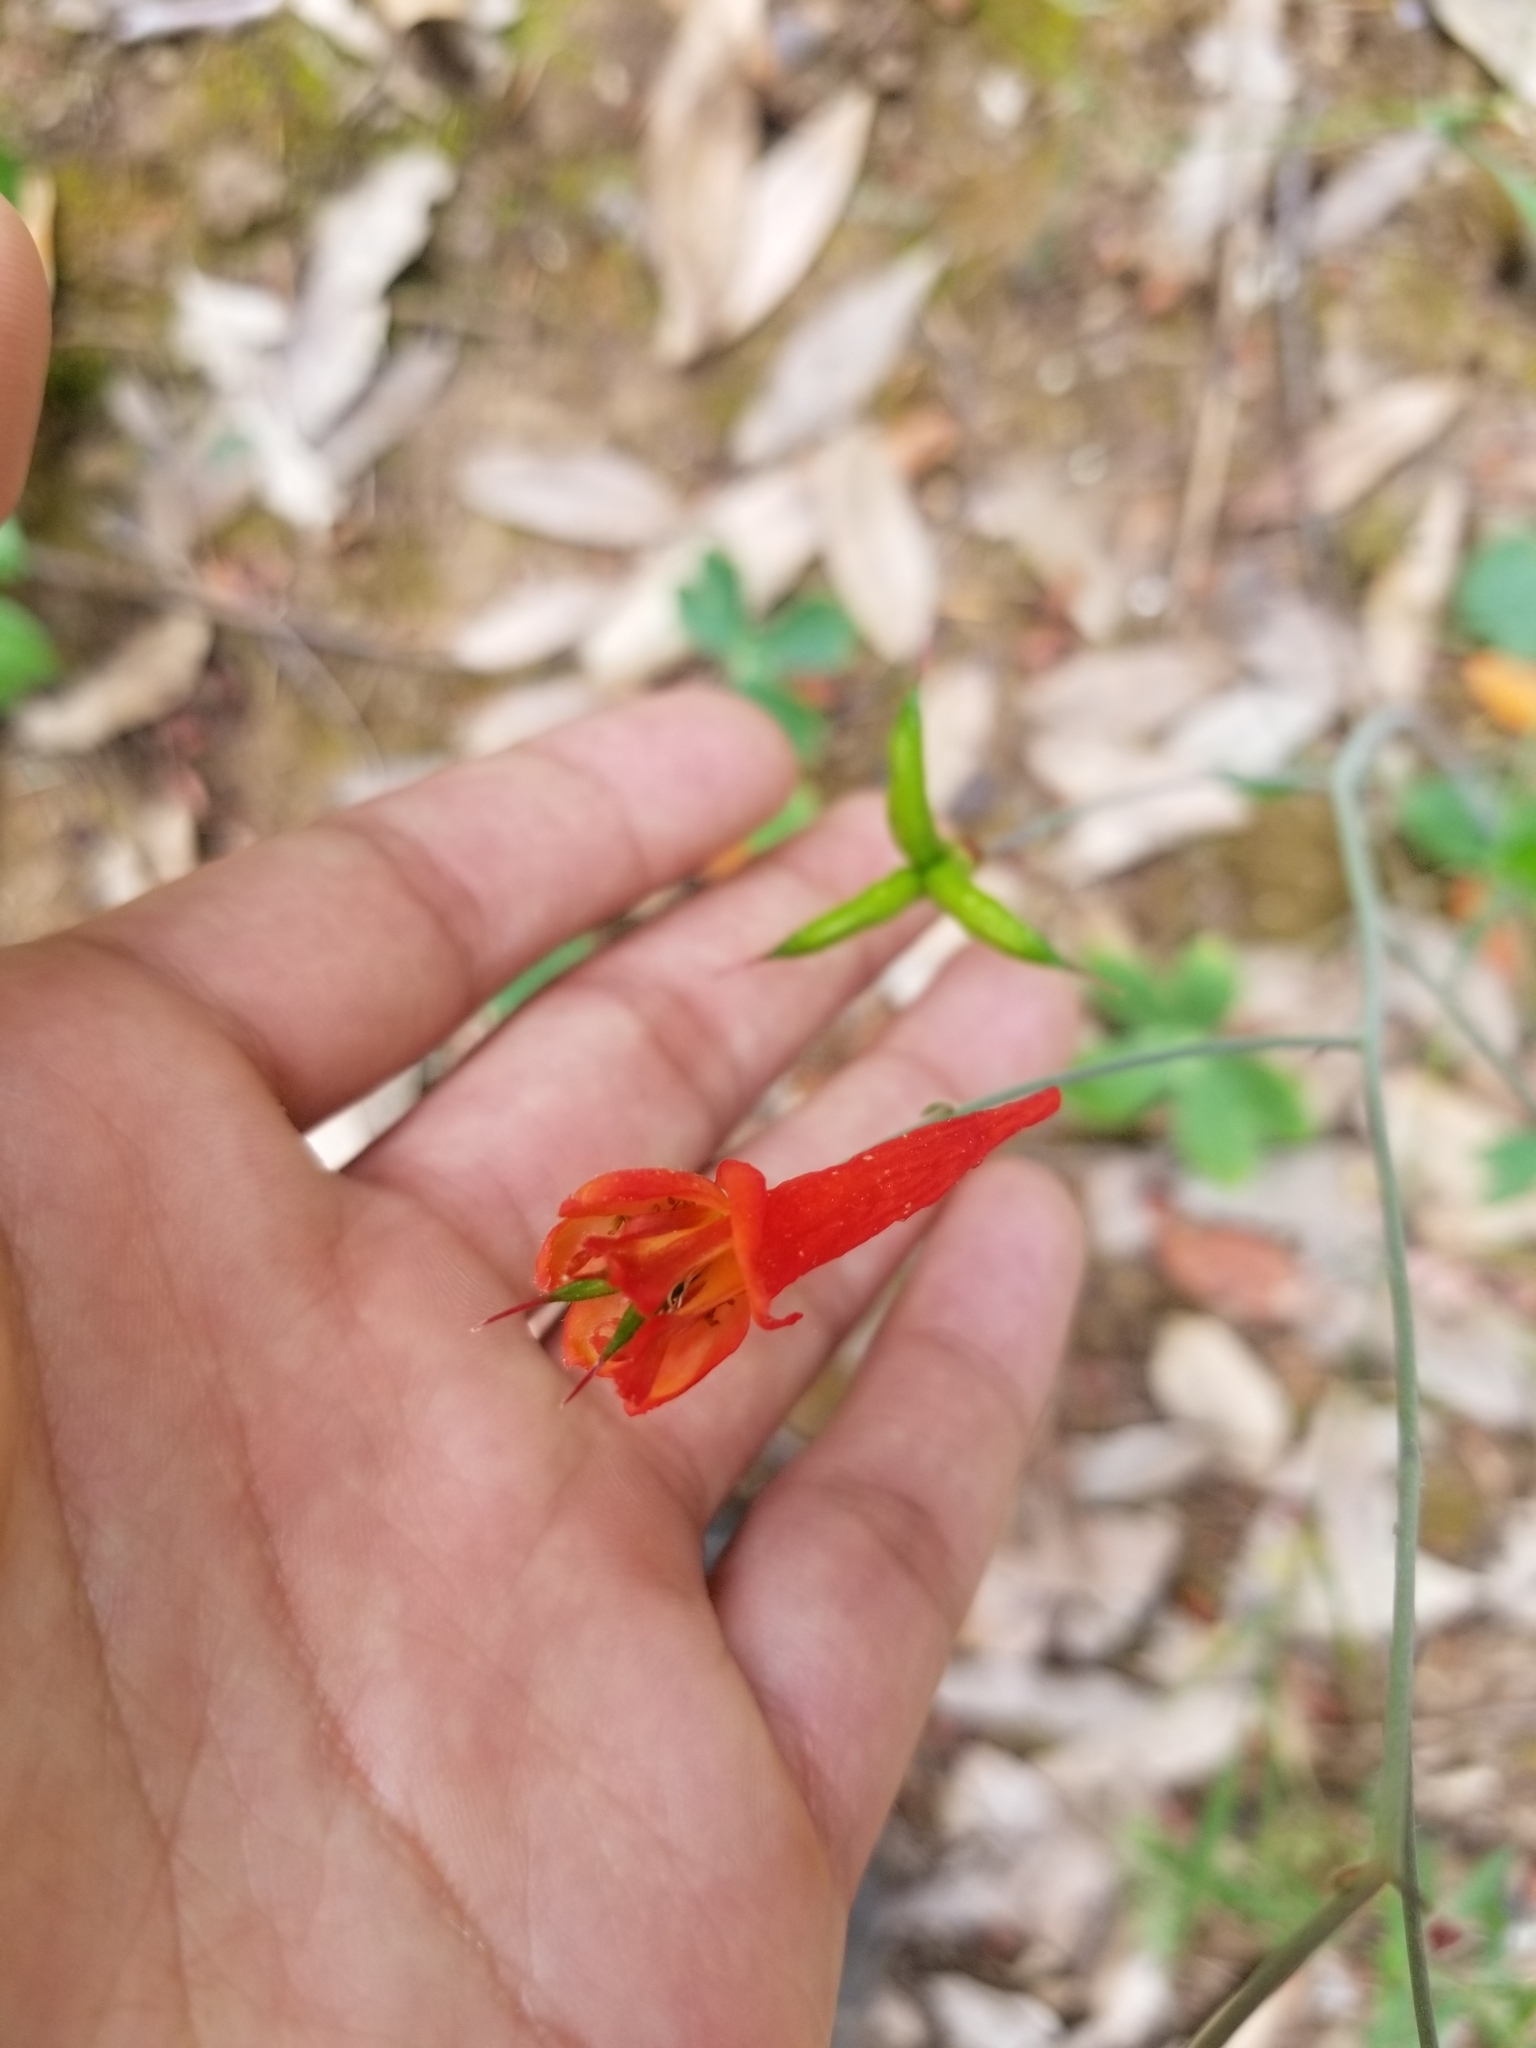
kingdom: Plantae
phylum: Tracheophyta
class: Magnoliopsida
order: Ranunculales
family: Ranunculaceae
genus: Delphinium
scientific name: Delphinium nudicaule
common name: Red larkspur
